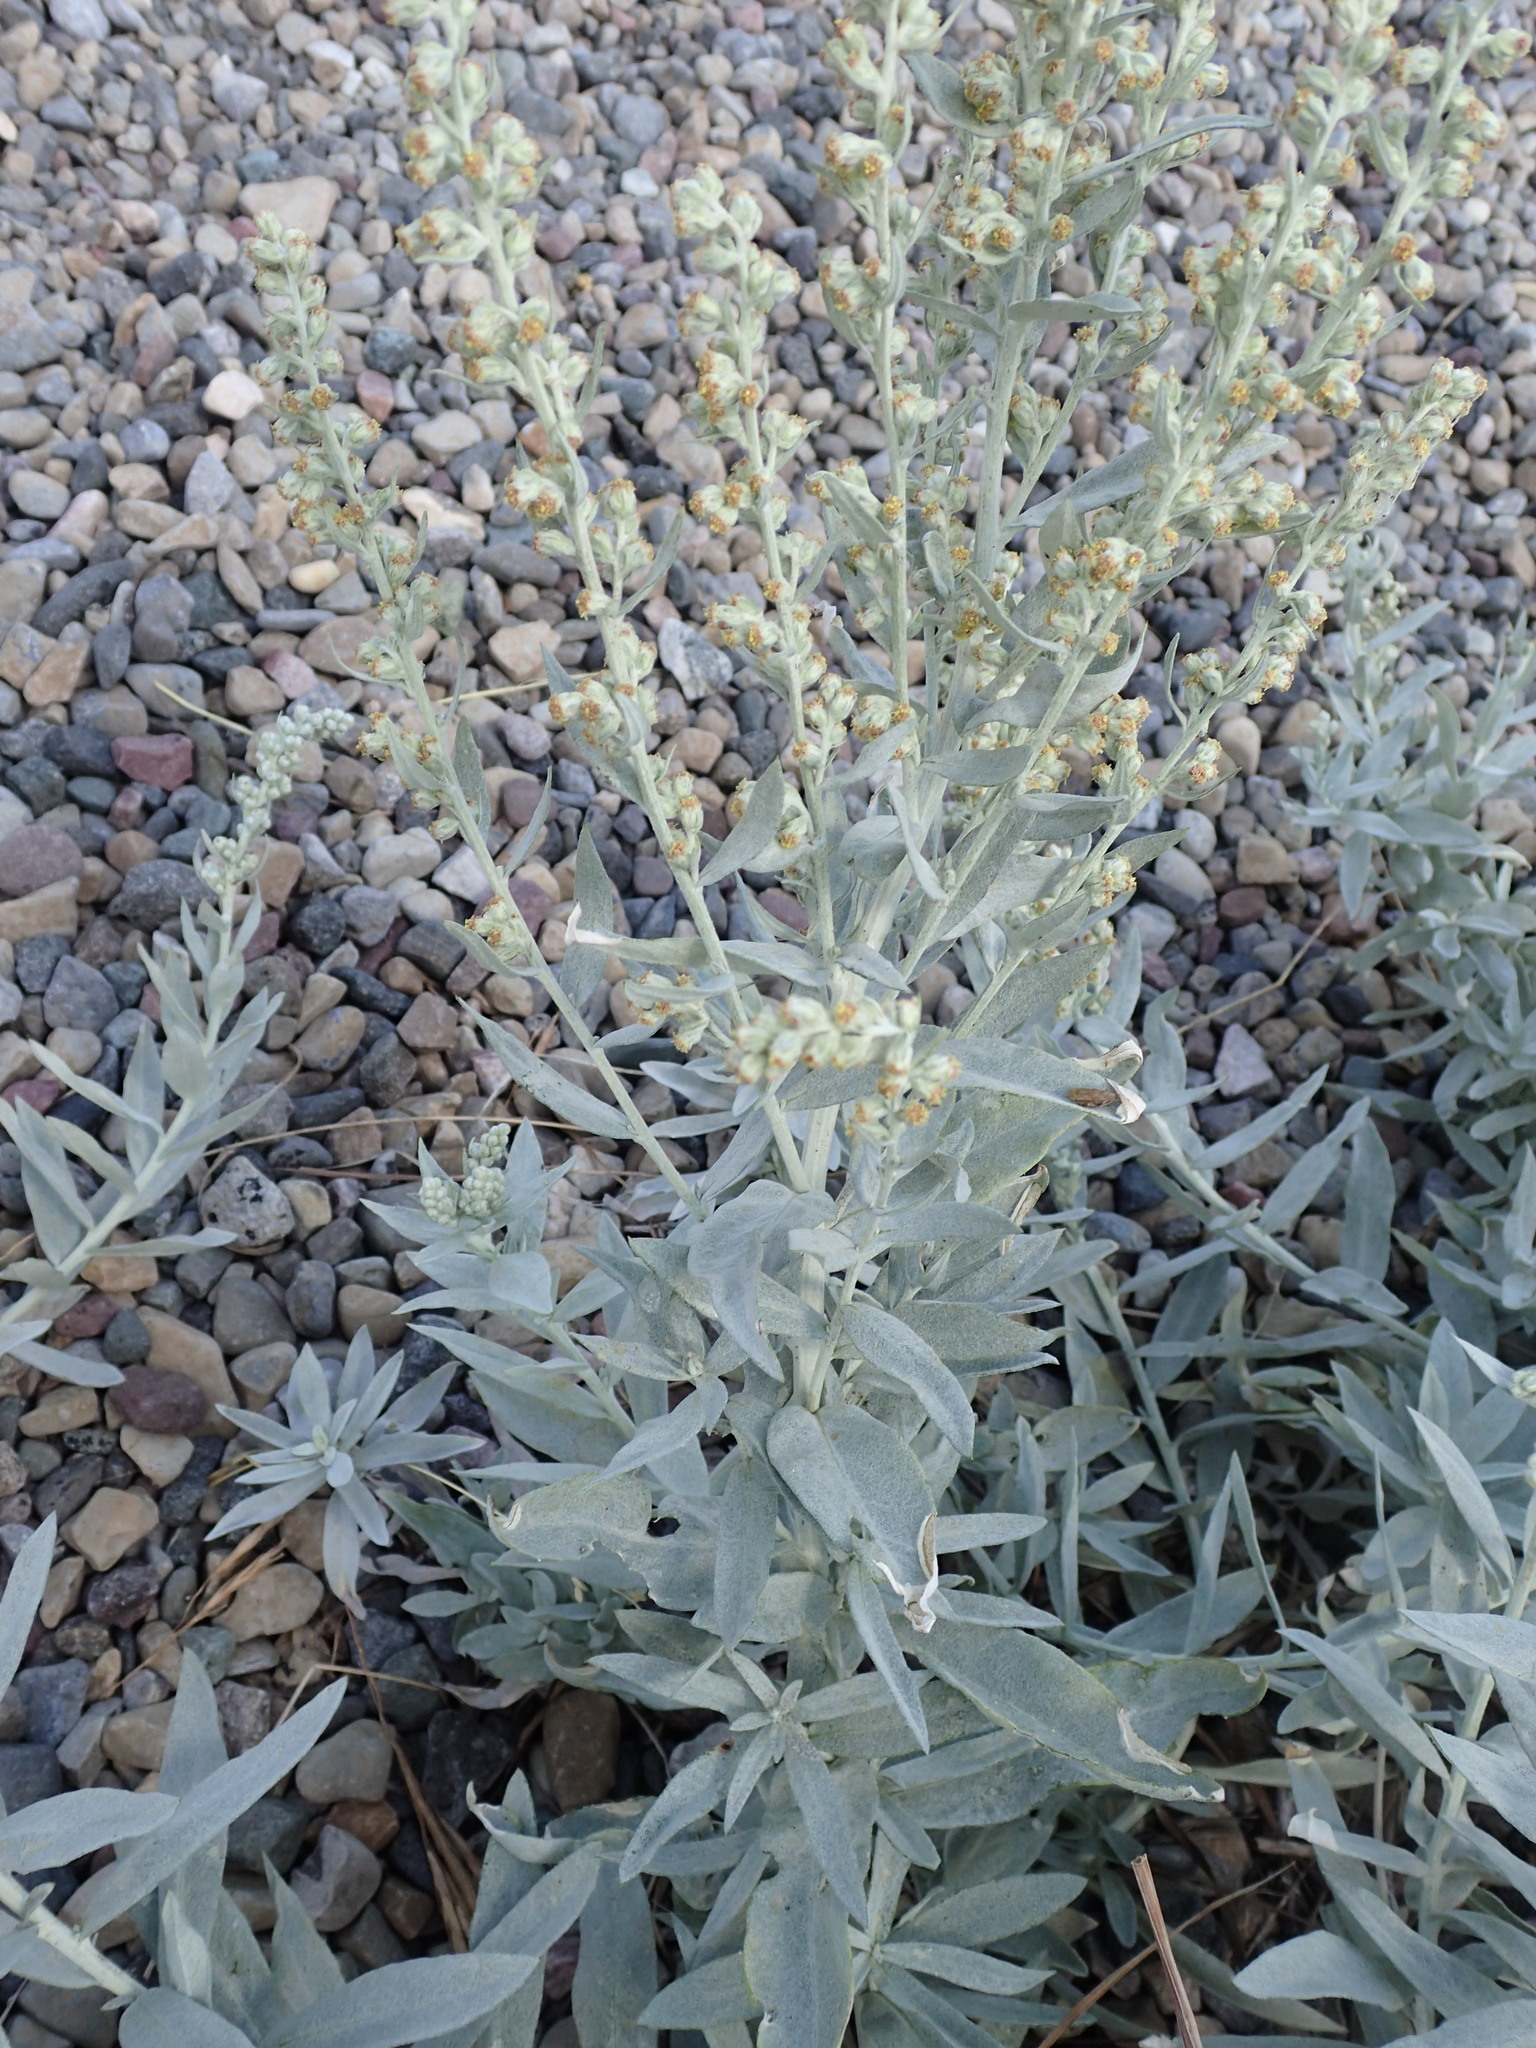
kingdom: Plantae
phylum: Tracheophyta
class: Magnoliopsida
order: Asterales
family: Asteraceae
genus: Artemisia
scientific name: Artemisia ludoviciana
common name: Western mugwort
